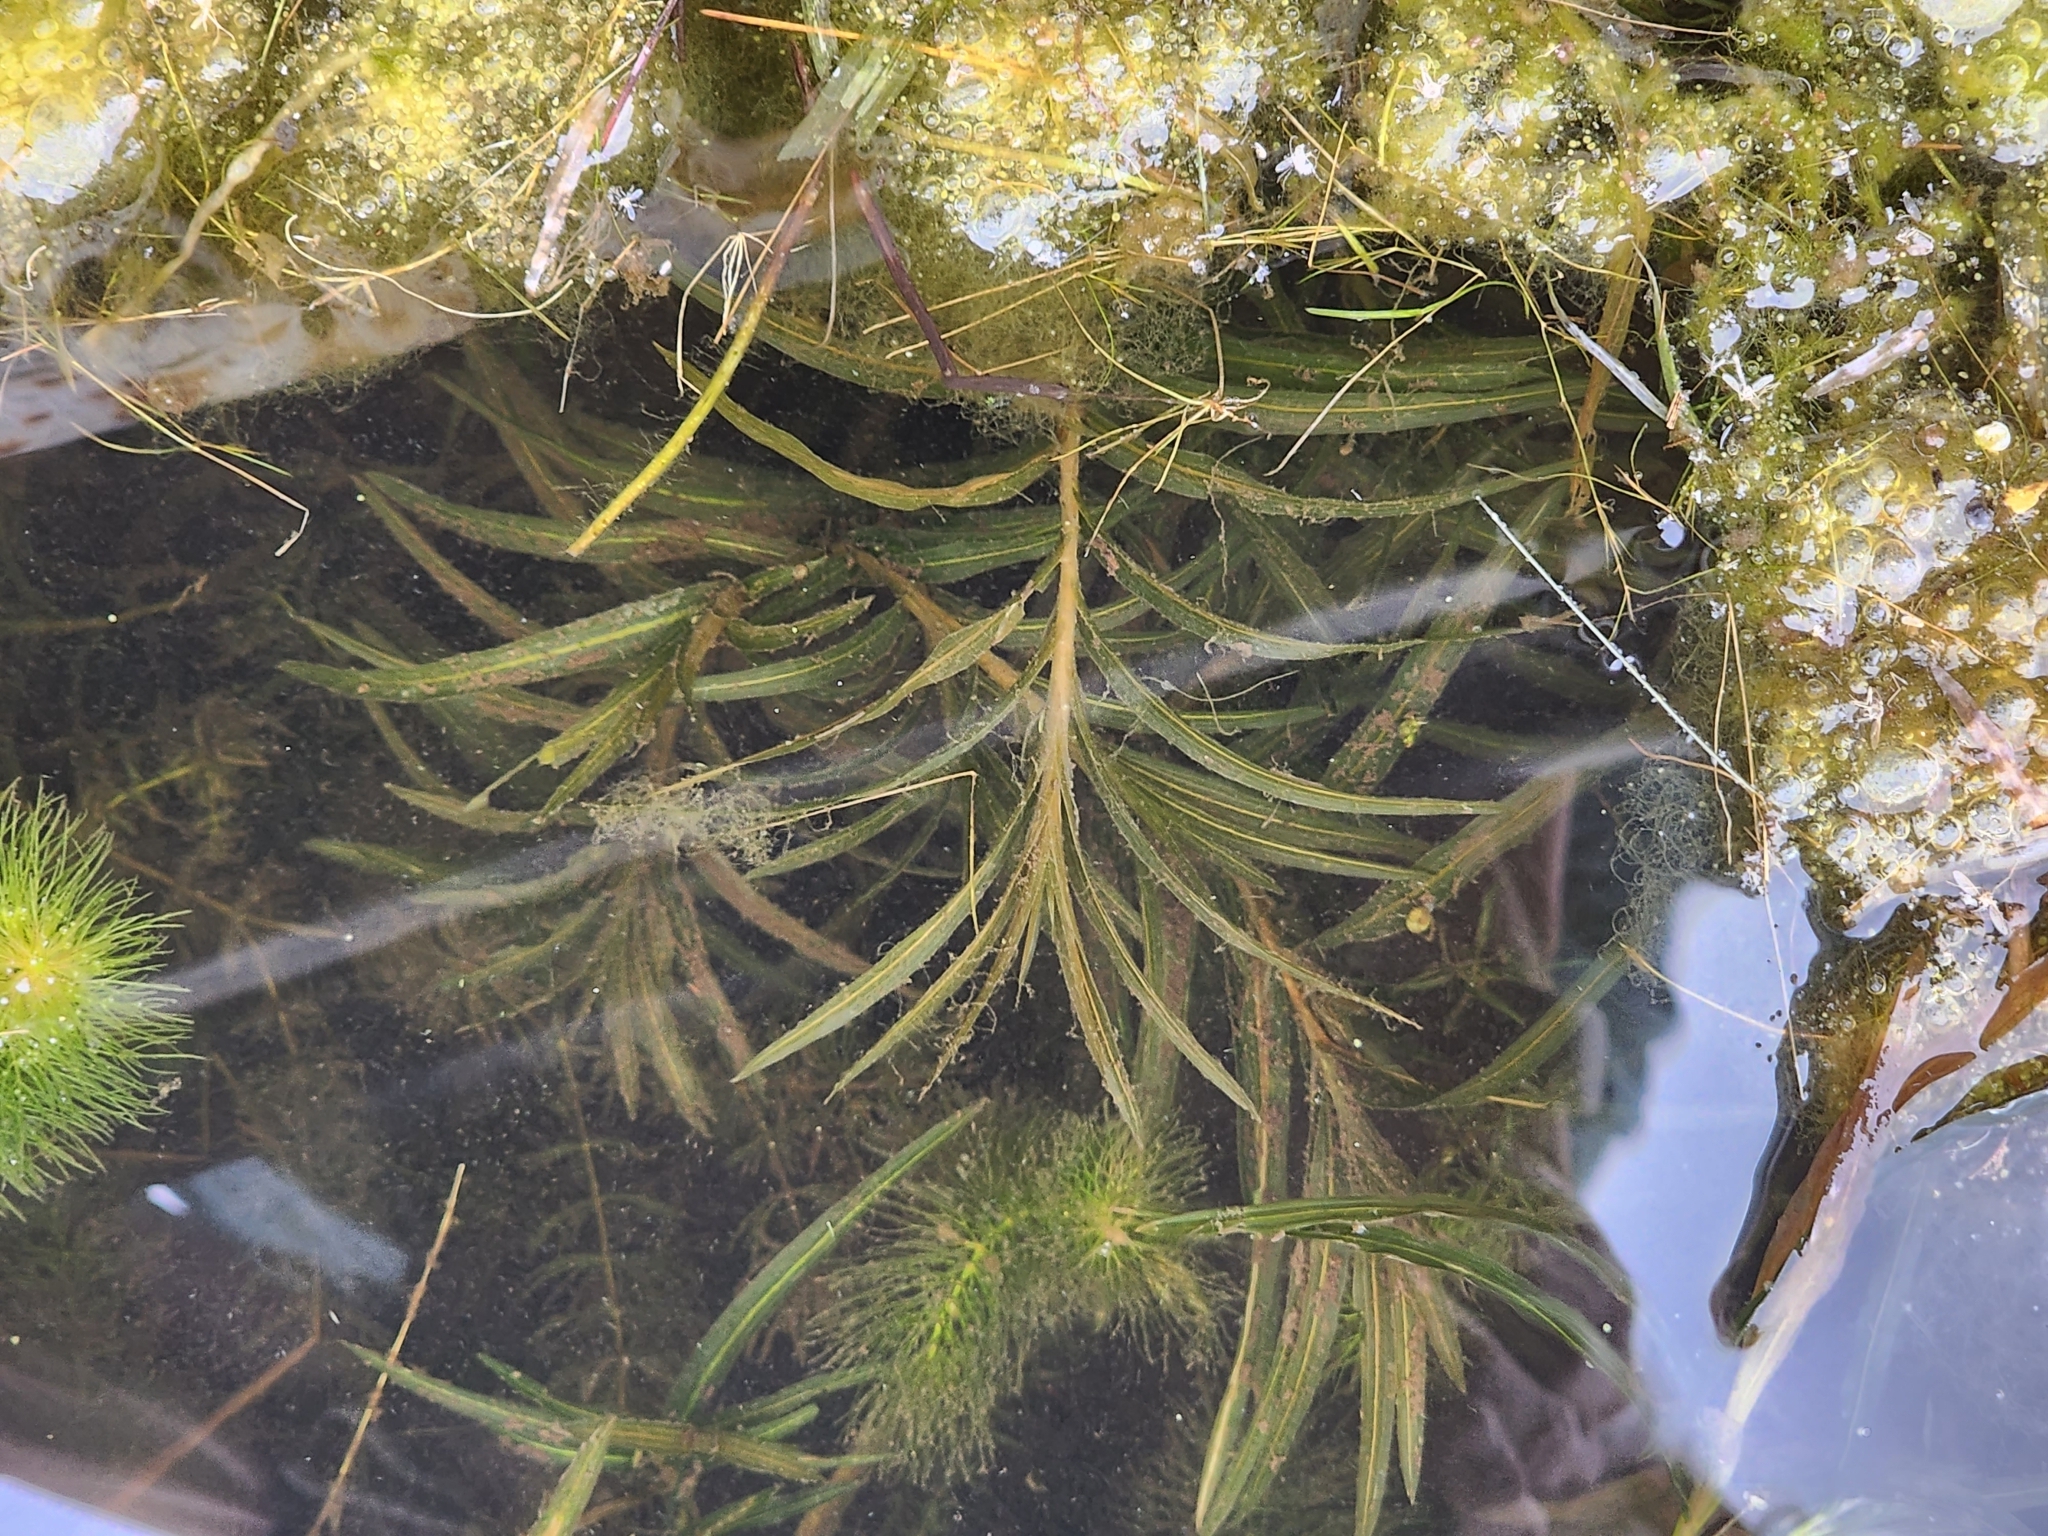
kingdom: Plantae
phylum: Tracheophyta
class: Liliopsida
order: Alismatales
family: Potamogetonaceae
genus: Potamogeton
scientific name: Potamogeton robbinsii
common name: Fern pondweed
